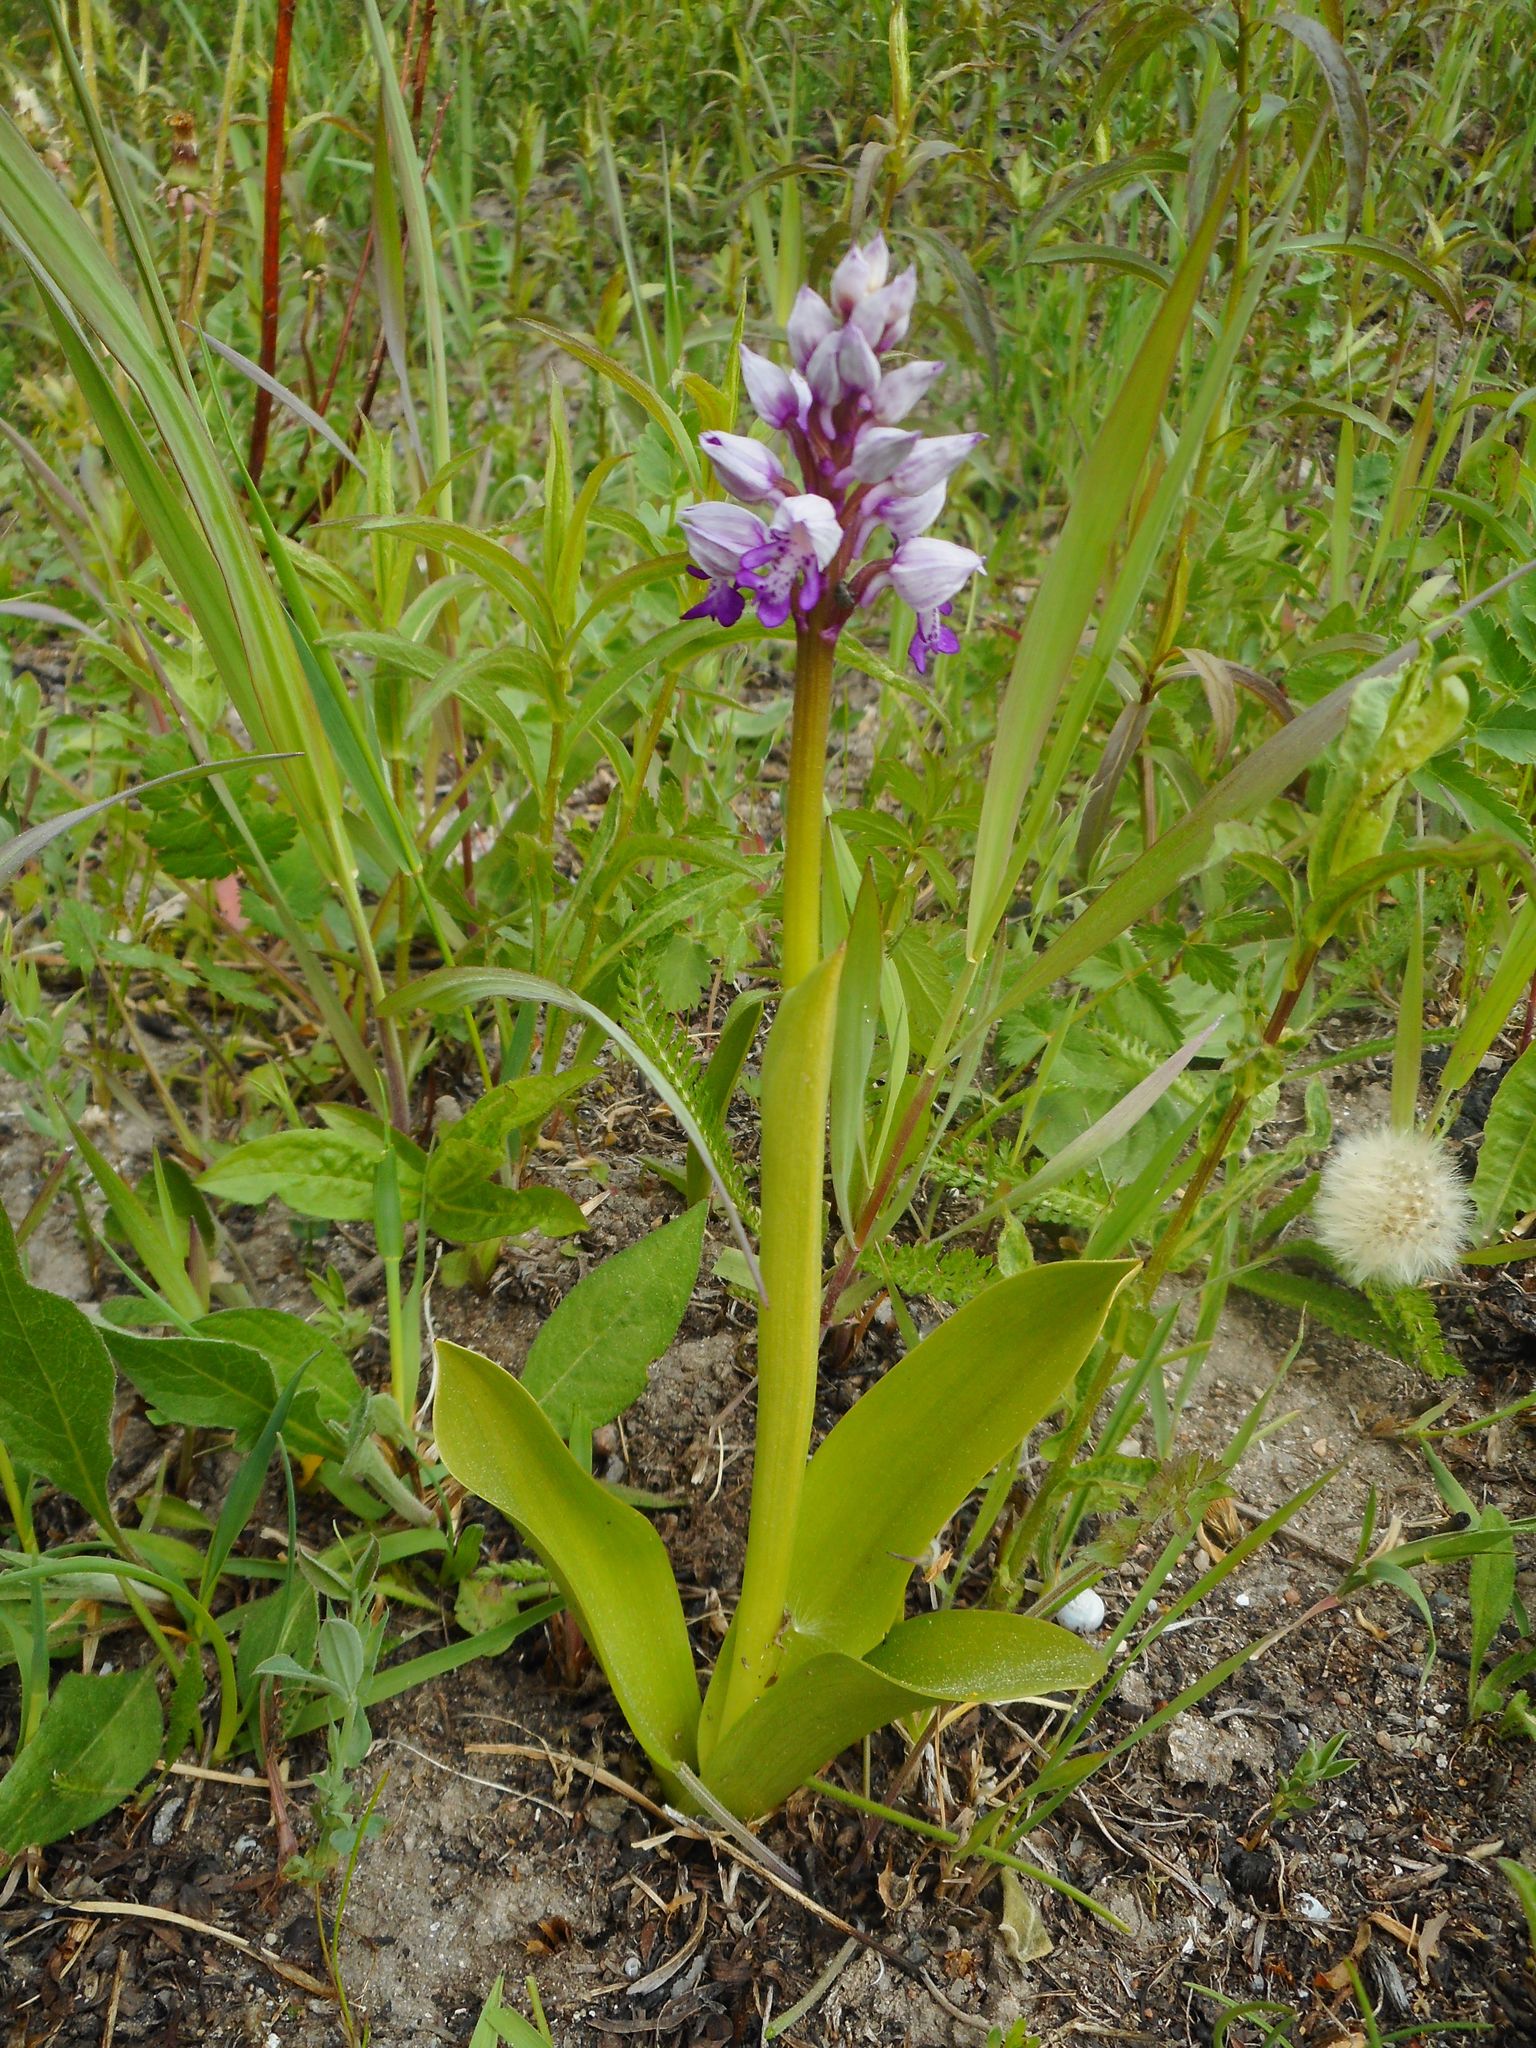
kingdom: Plantae
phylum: Tracheophyta
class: Liliopsida
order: Asparagales
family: Orchidaceae
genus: Orchis
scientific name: Orchis militaris
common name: Military orchid
